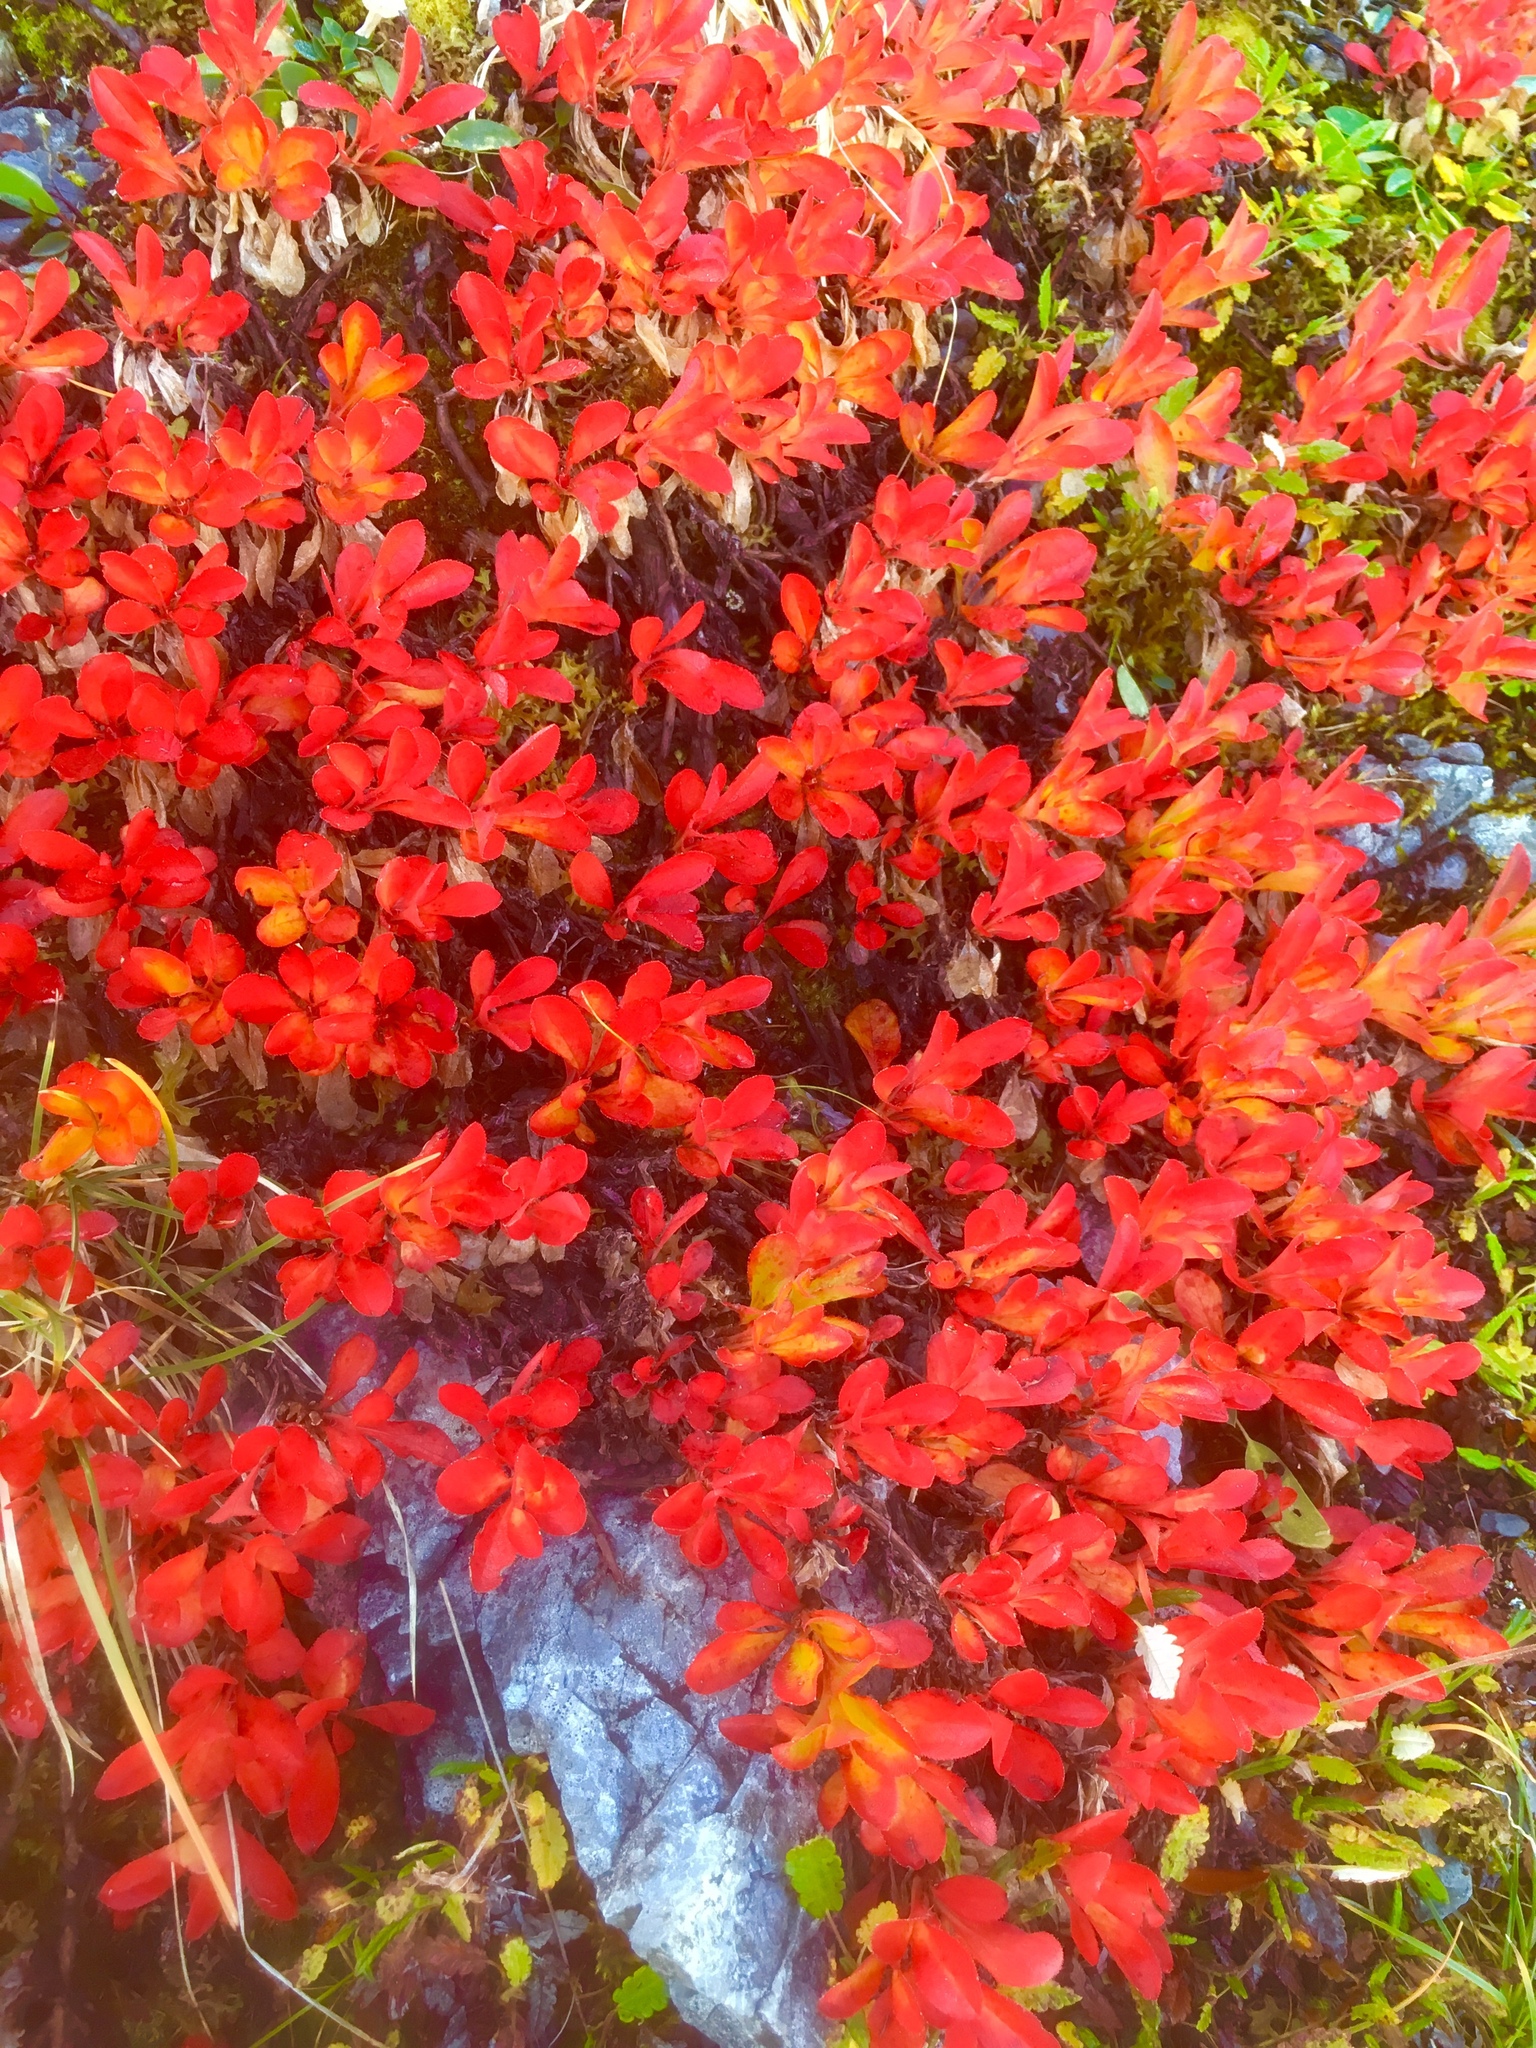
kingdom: Plantae
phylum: Tracheophyta
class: Magnoliopsida
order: Ericales
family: Ericaceae
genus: Arctostaphylos
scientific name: Arctostaphylos alpinus
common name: Alpine bearberry
